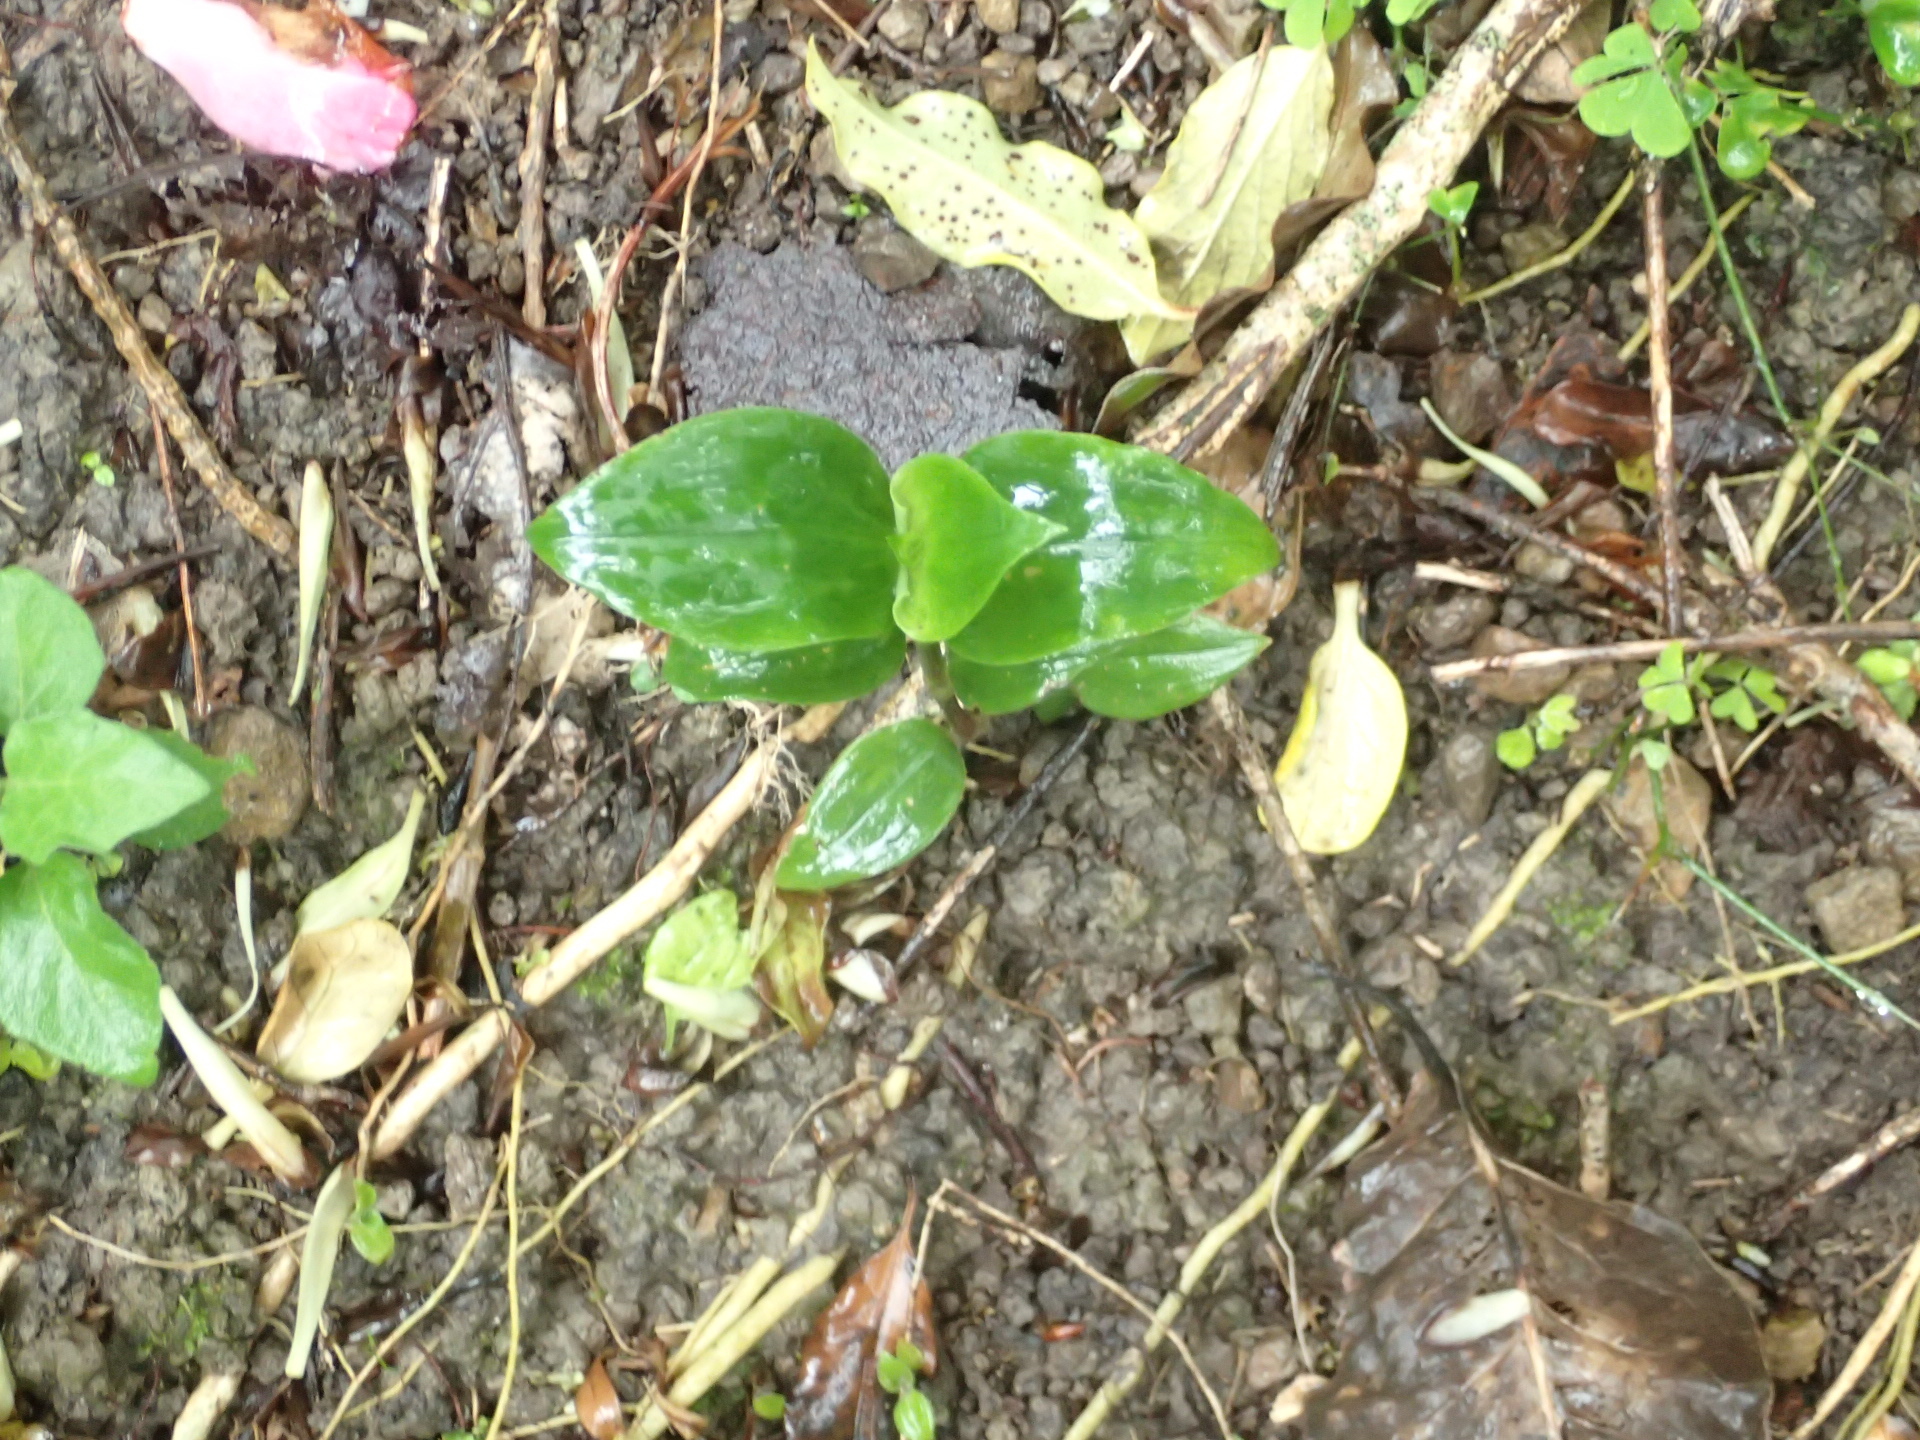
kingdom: Plantae
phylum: Tracheophyta
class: Liliopsida
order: Commelinales
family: Commelinaceae
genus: Tradescantia
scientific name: Tradescantia fluminensis
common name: Wandering-jew
